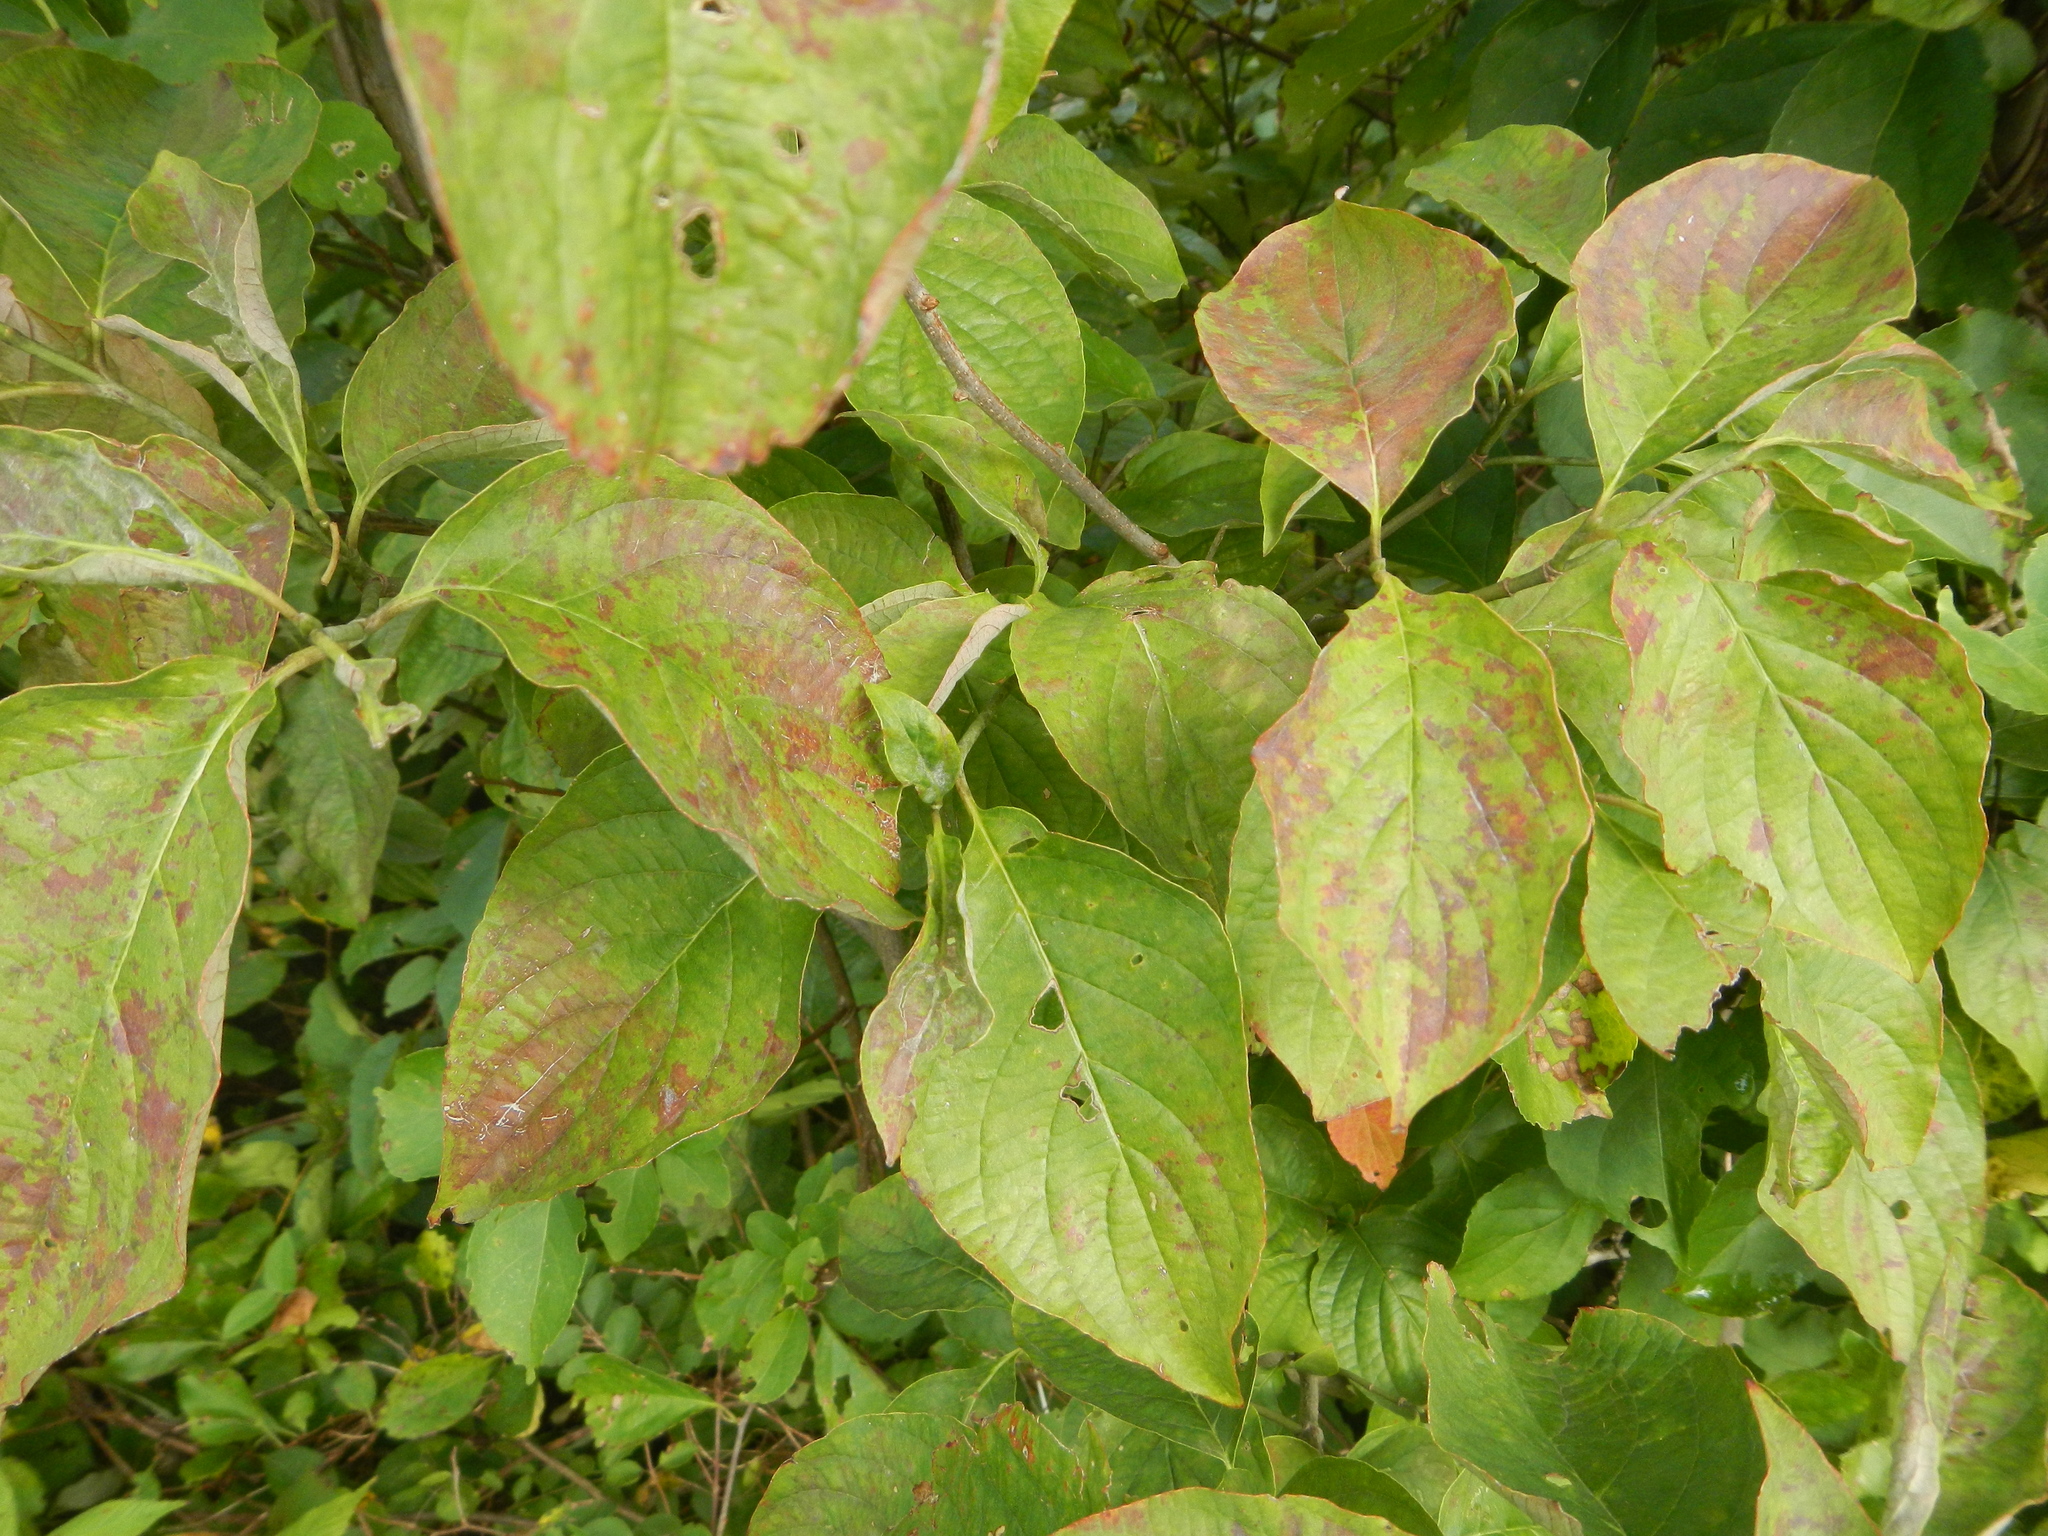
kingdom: Plantae
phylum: Tracheophyta
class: Magnoliopsida
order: Cornales
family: Cornaceae
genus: Cornus
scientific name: Cornus florida
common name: Flowering dogwood
